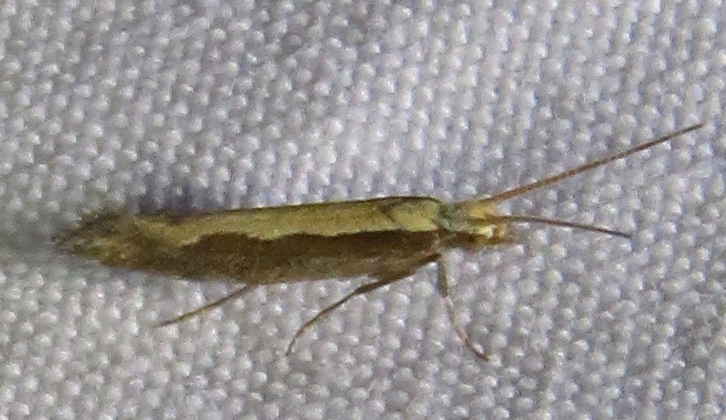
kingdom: Animalia
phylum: Arthropoda
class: Insecta
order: Lepidoptera
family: Plutellidae
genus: Plutella
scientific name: Plutella xylostella
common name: Diamond-back moth
